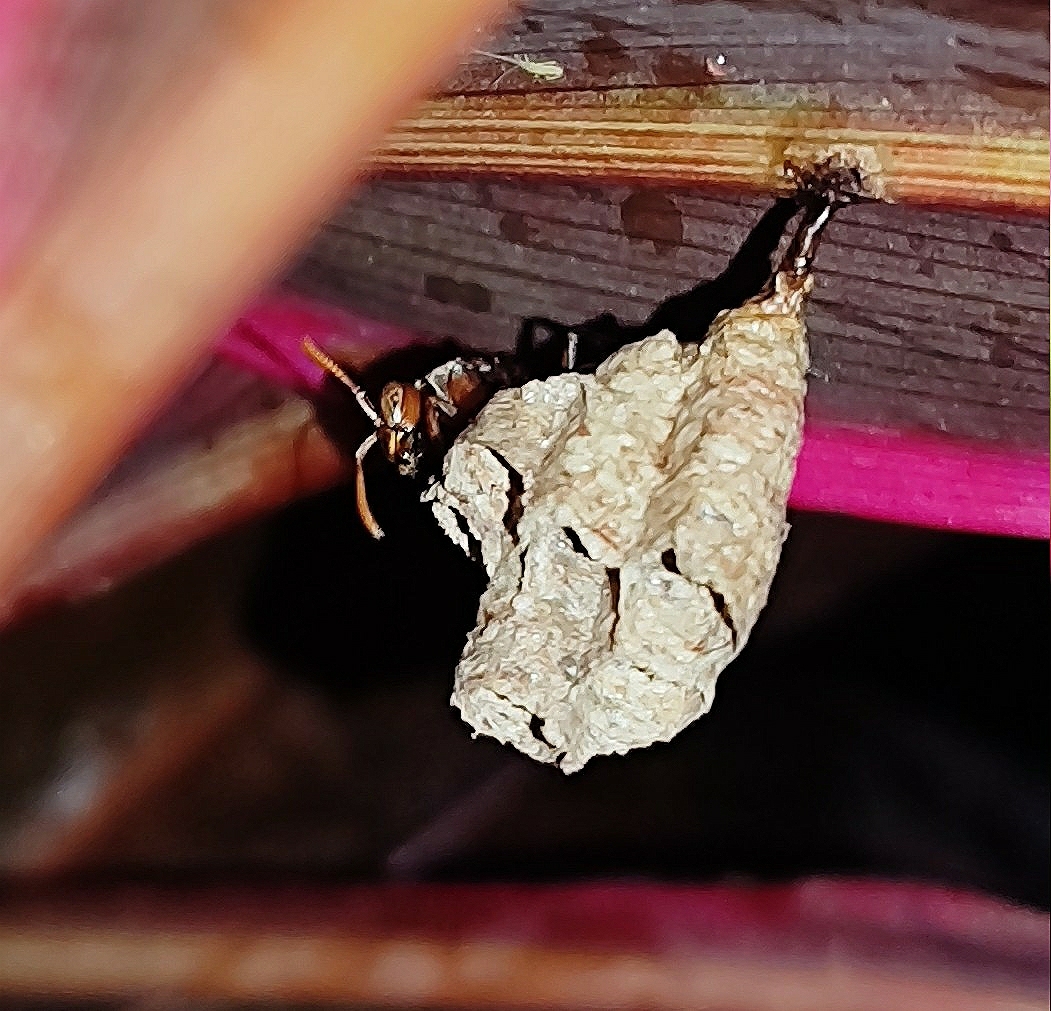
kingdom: Animalia
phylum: Arthropoda
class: Insecta
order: Hymenoptera
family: Vespidae
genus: Ropalidia
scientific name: Ropalidia
